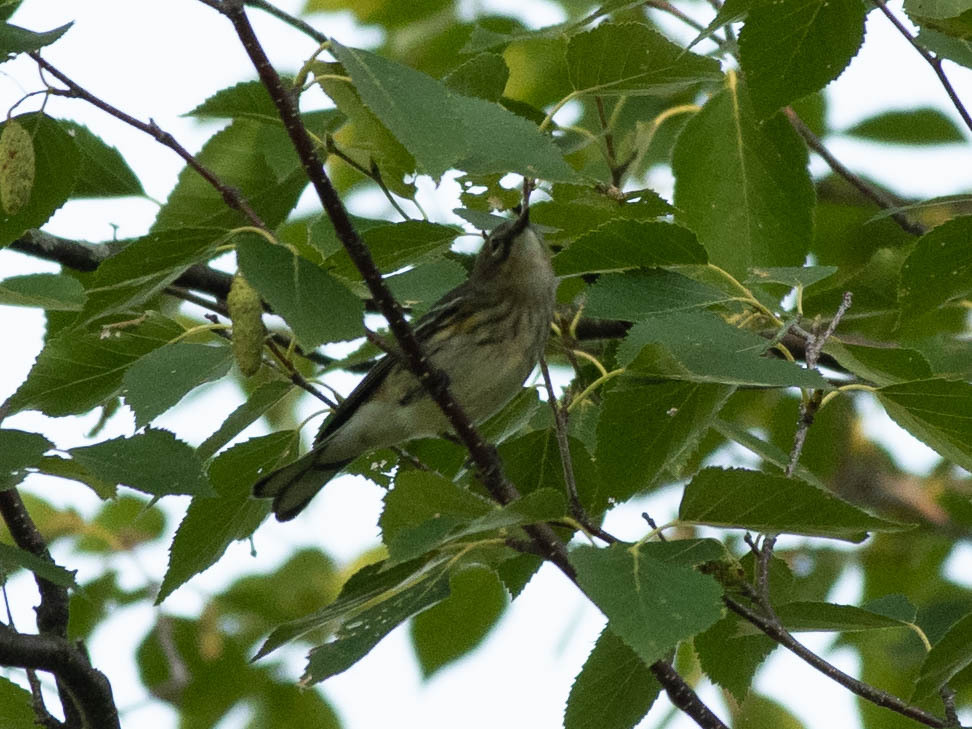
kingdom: Animalia
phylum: Chordata
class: Aves
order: Passeriformes
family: Parulidae
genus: Setophaga
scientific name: Setophaga coronata
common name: Myrtle warbler
